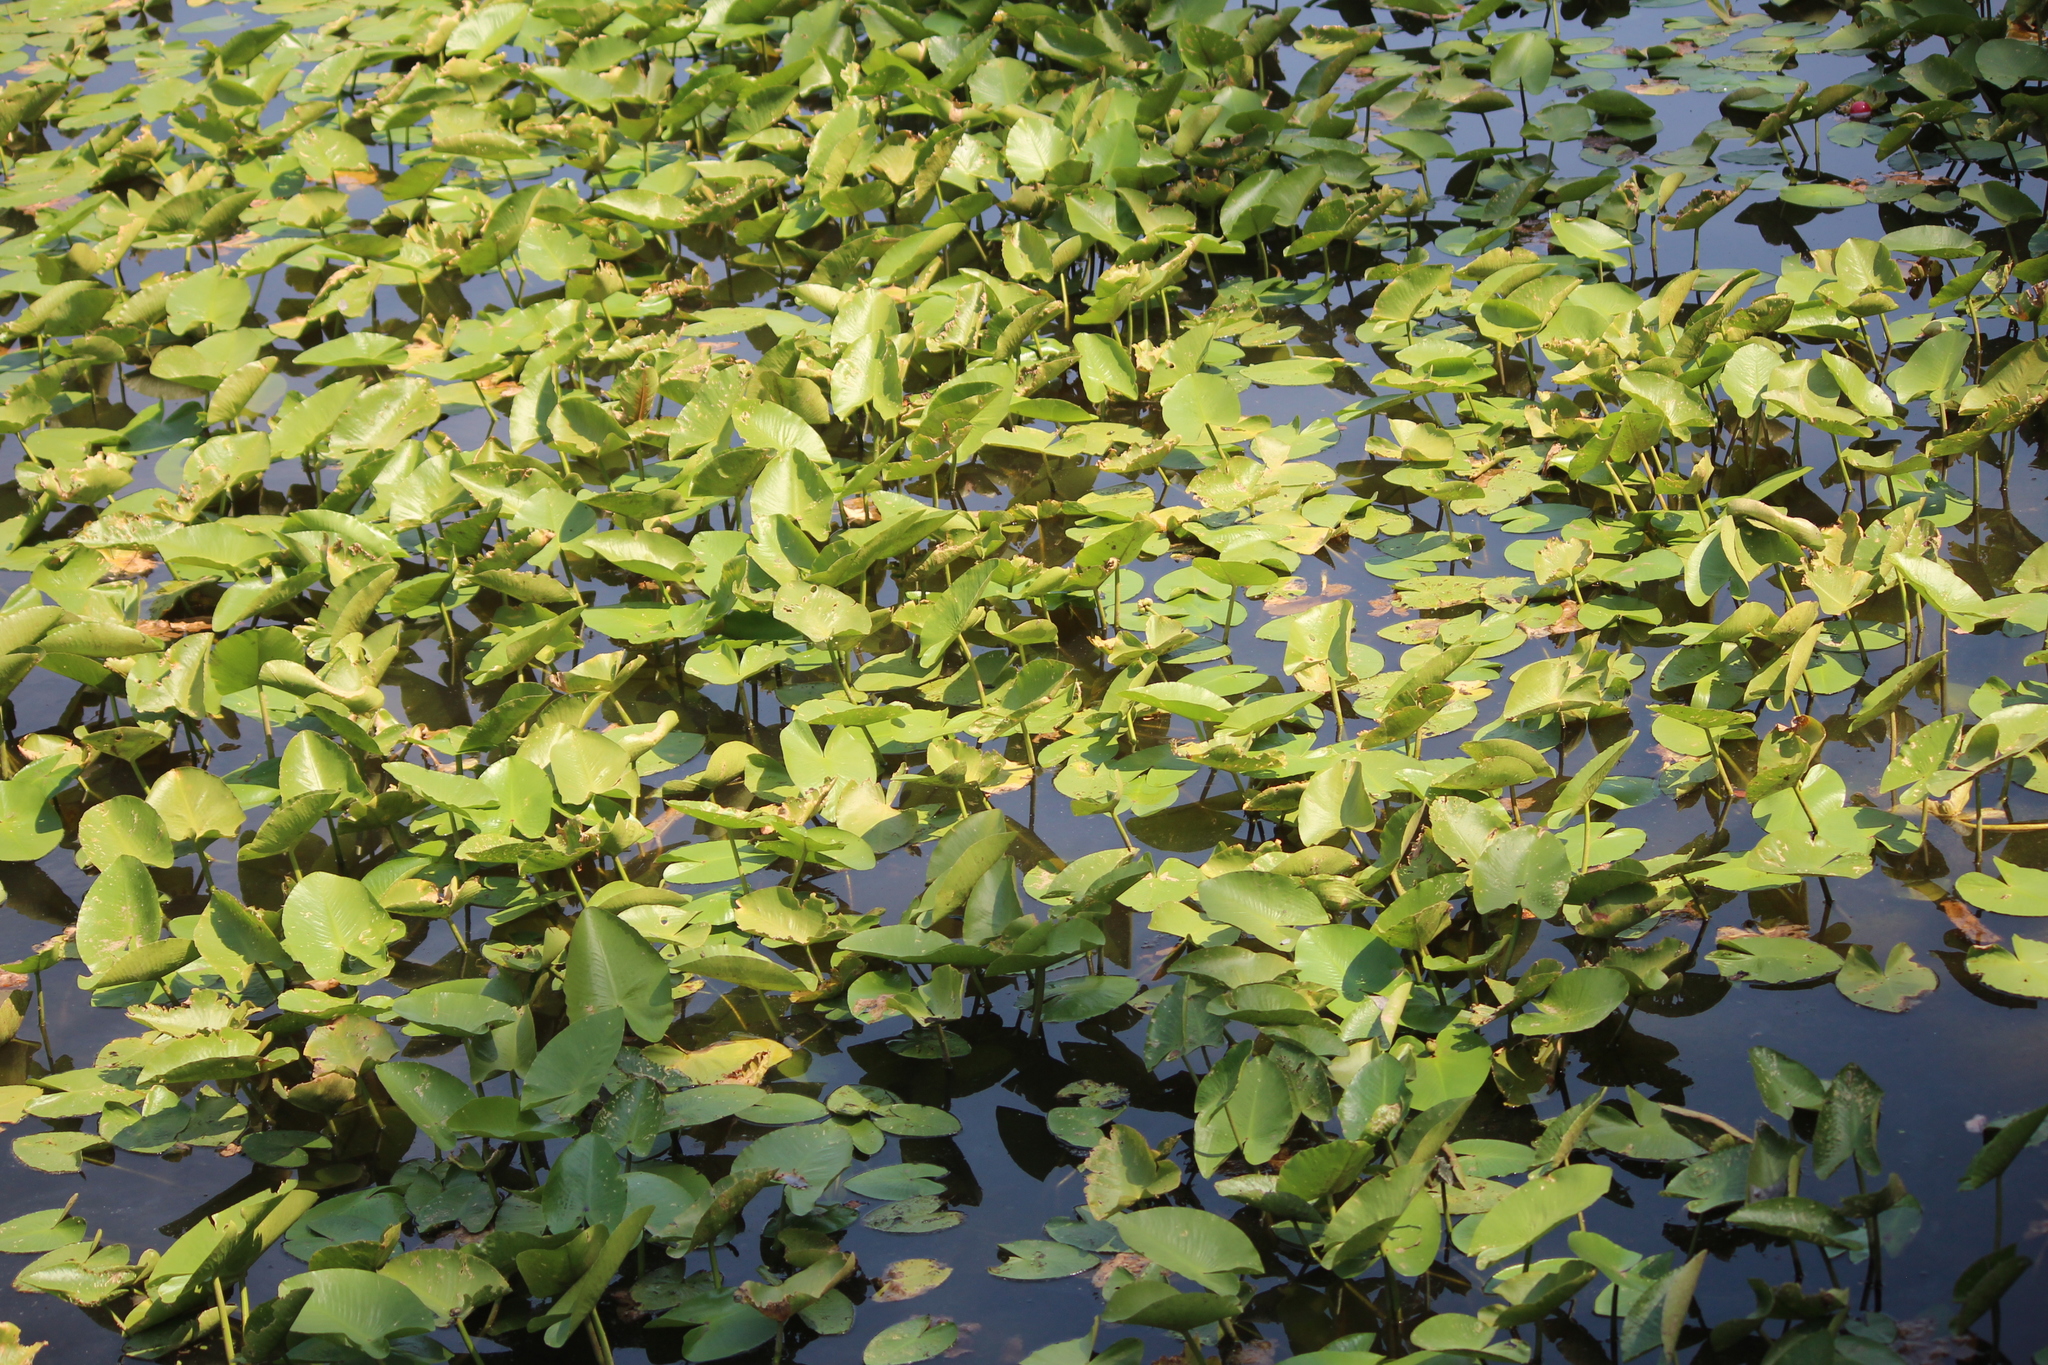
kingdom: Plantae
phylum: Tracheophyta
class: Magnoliopsida
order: Nymphaeales
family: Nymphaeaceae
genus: Nuphar
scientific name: Nuphar advena
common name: Spatter-dock
